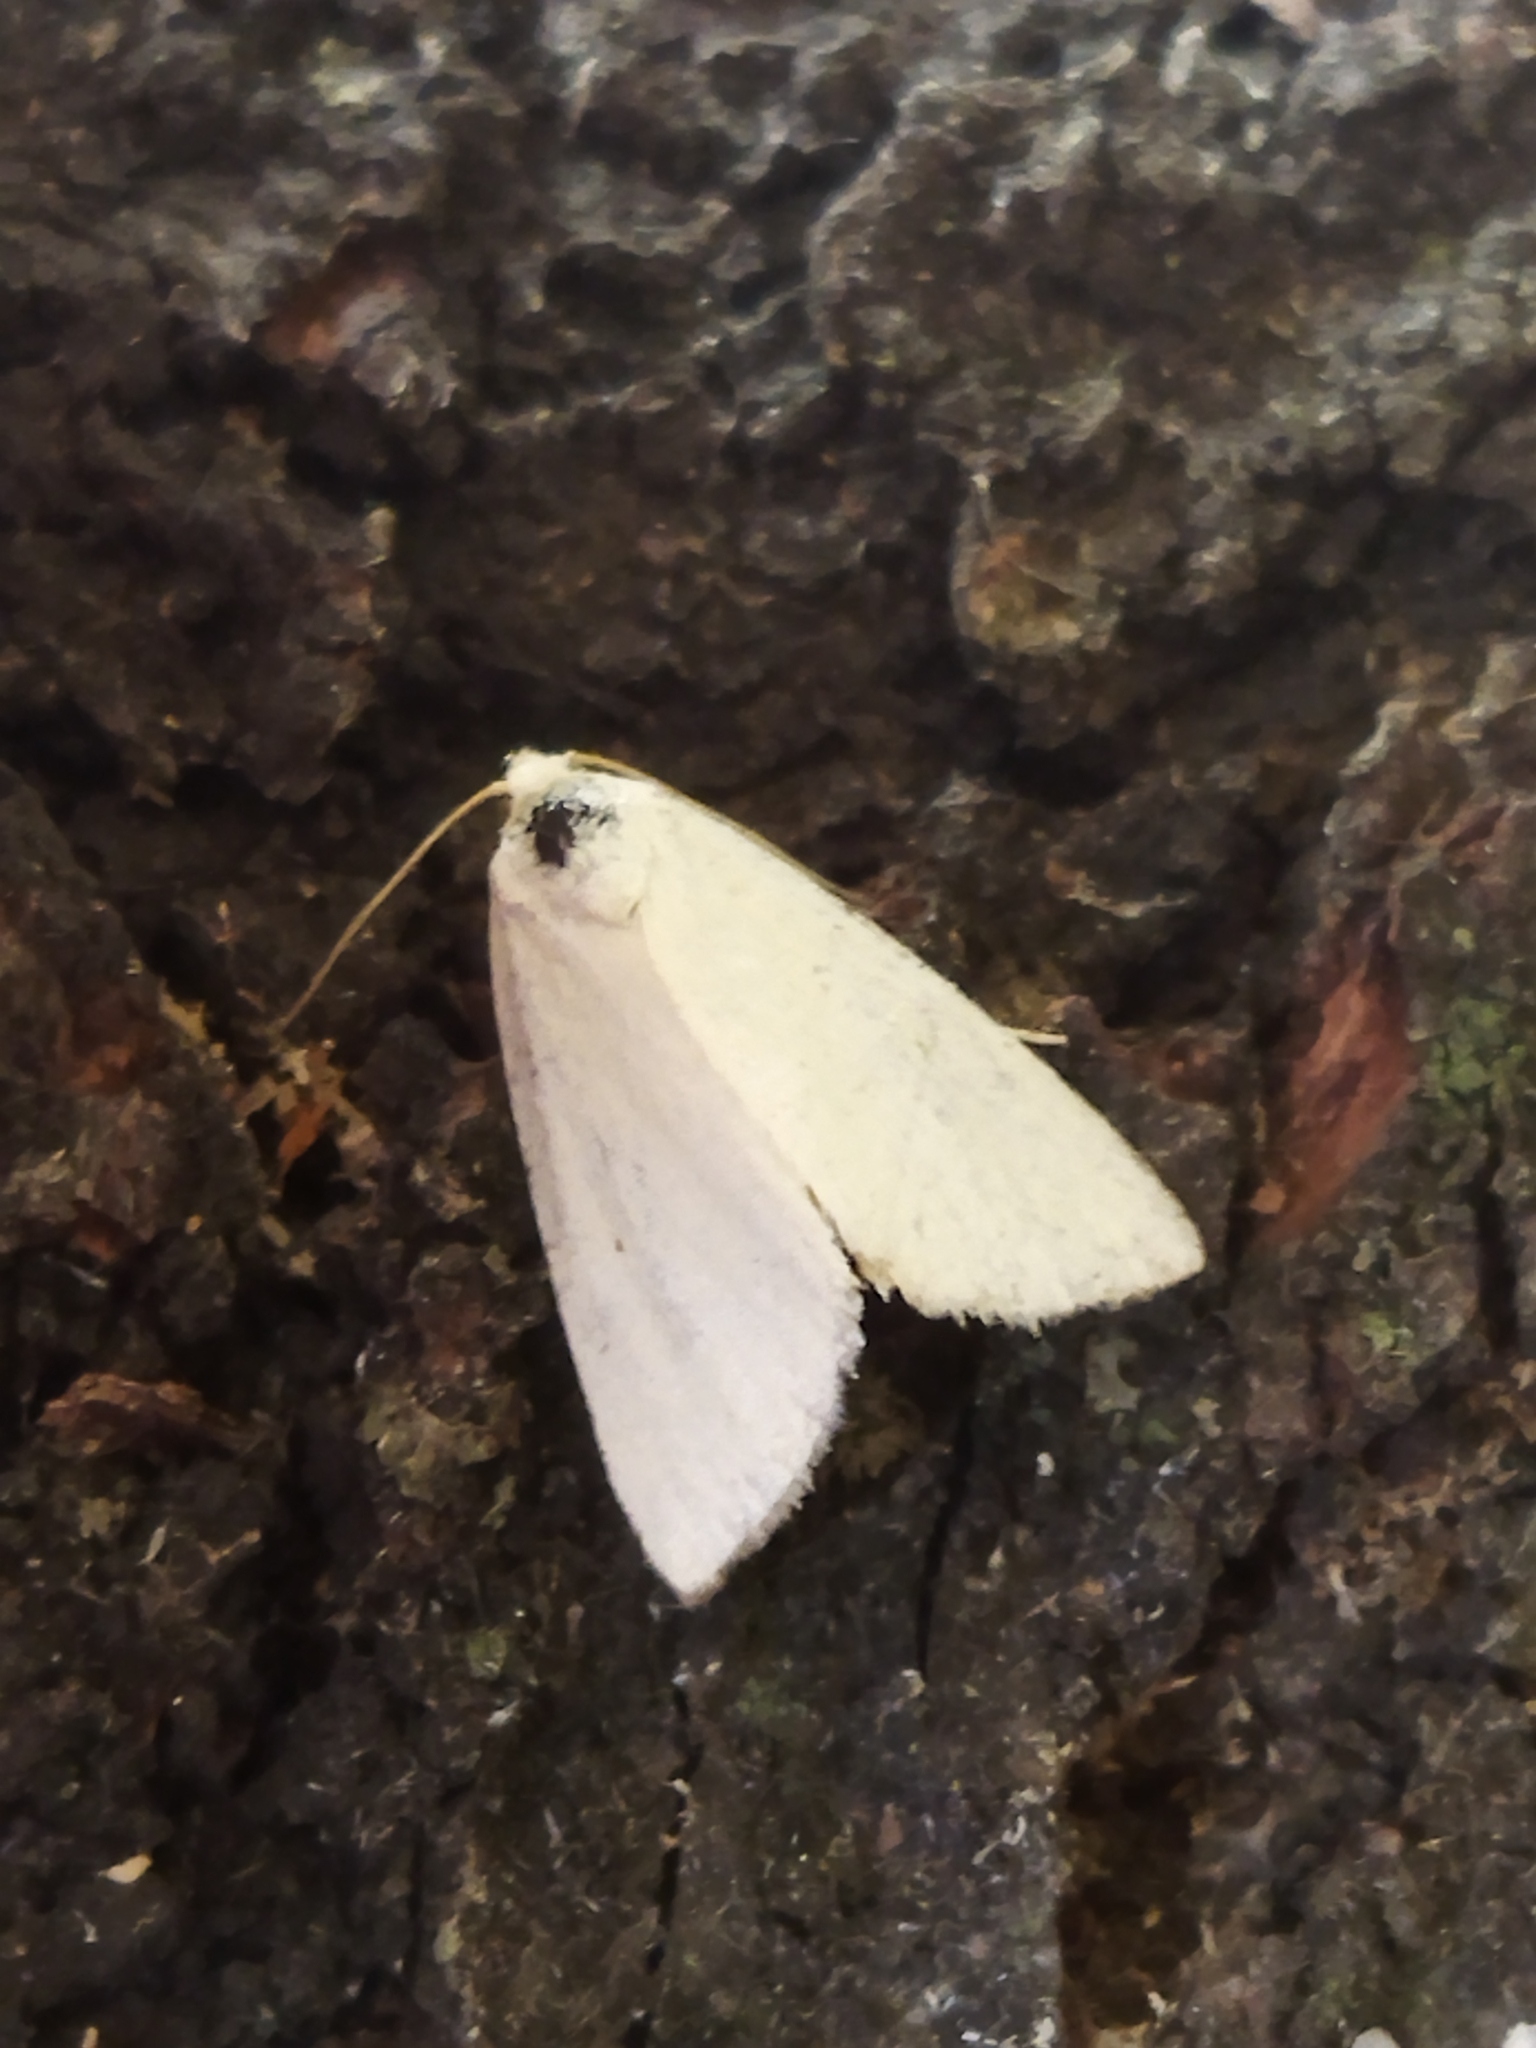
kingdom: Animalia
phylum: Arthropoda
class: Insecta
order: Lepidoptera
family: Noctuidae
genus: Aegle
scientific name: Aegle kaekeritziana
